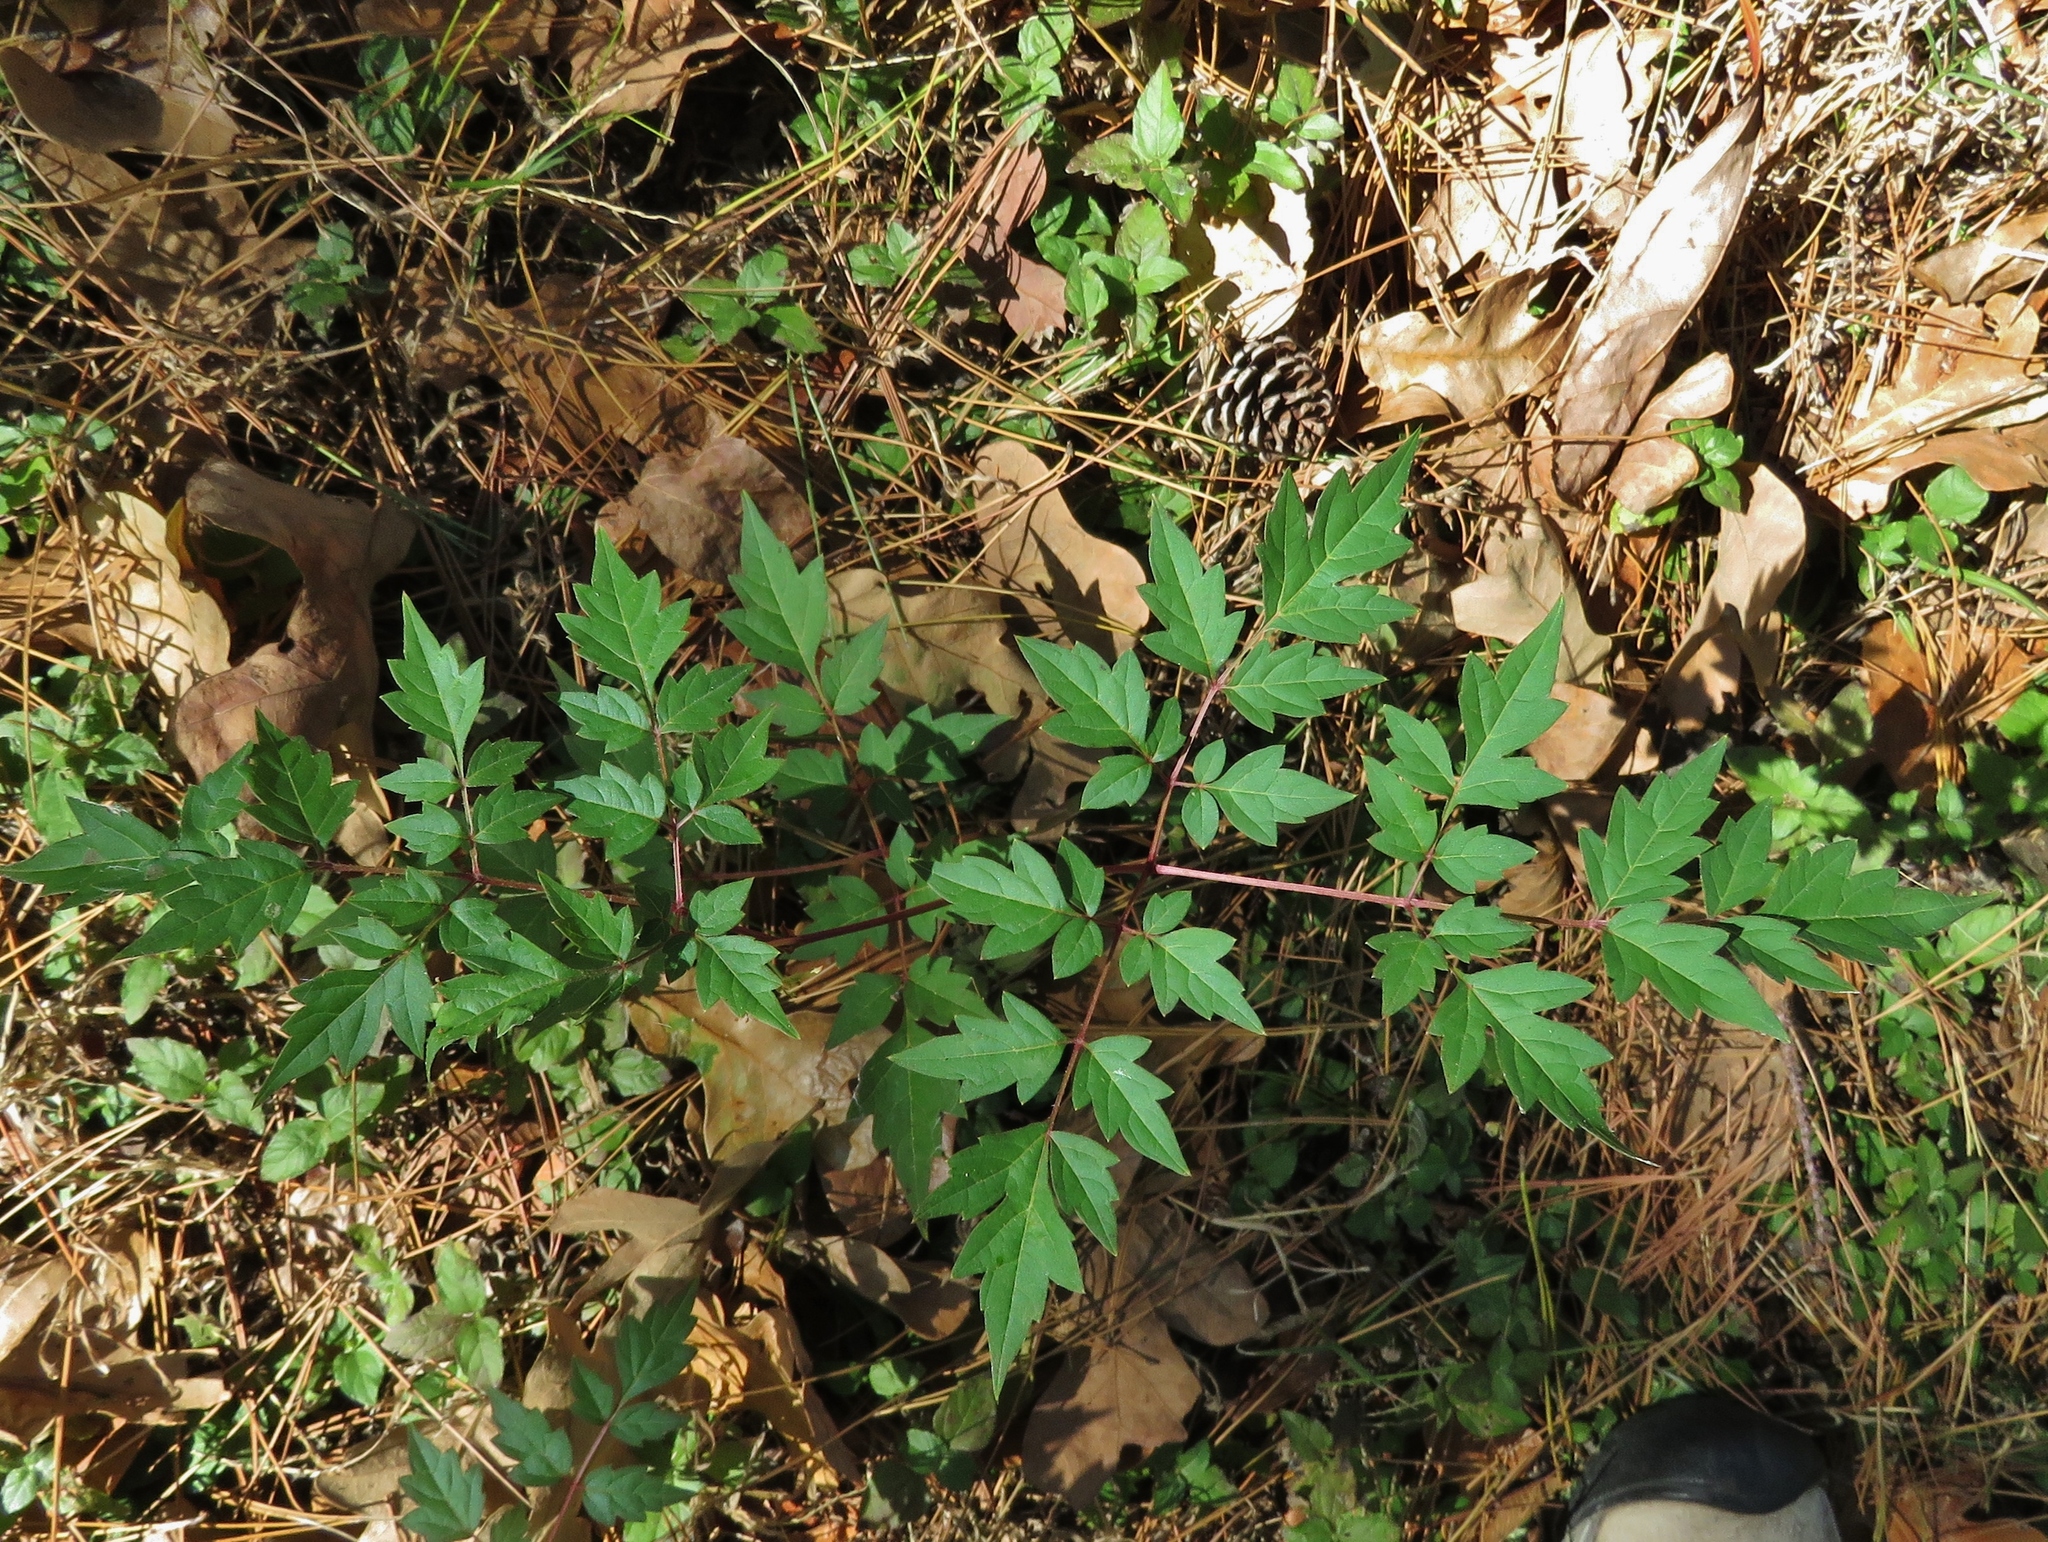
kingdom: Plantae
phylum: Tracheophyta
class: Magnoliopsida
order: Vitales
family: Vitaceae
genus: Nekemias
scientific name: Nekemias arborea
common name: Peppervine
